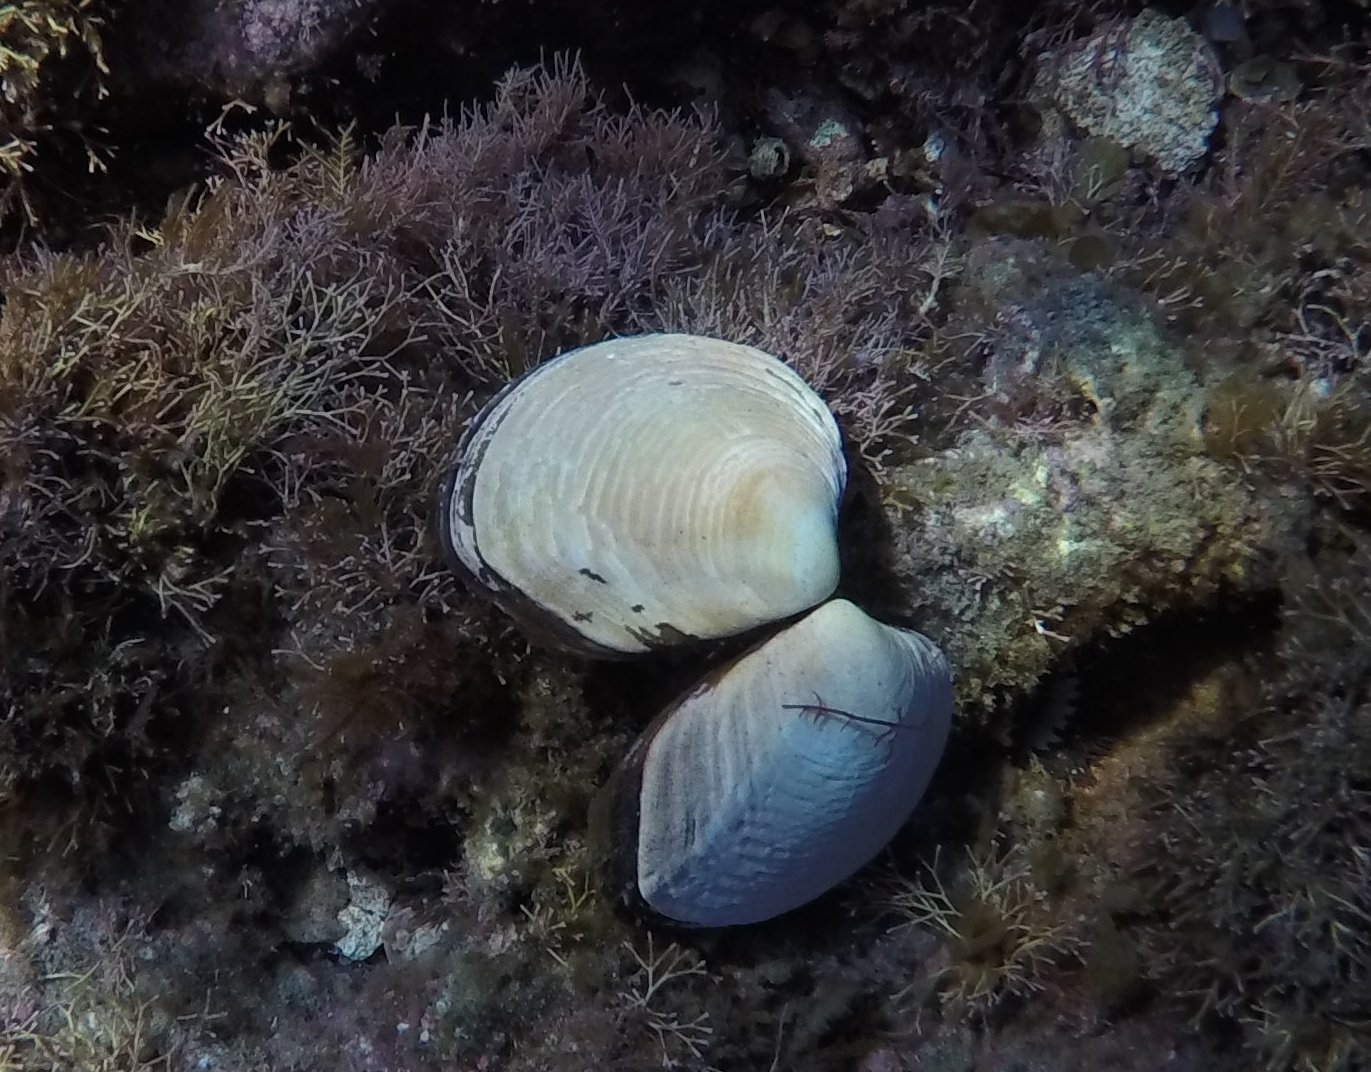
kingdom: Animalia
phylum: Mollusca
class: Bivalvia
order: Cardiida
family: Semelidae
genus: Semele
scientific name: Semele decisa
